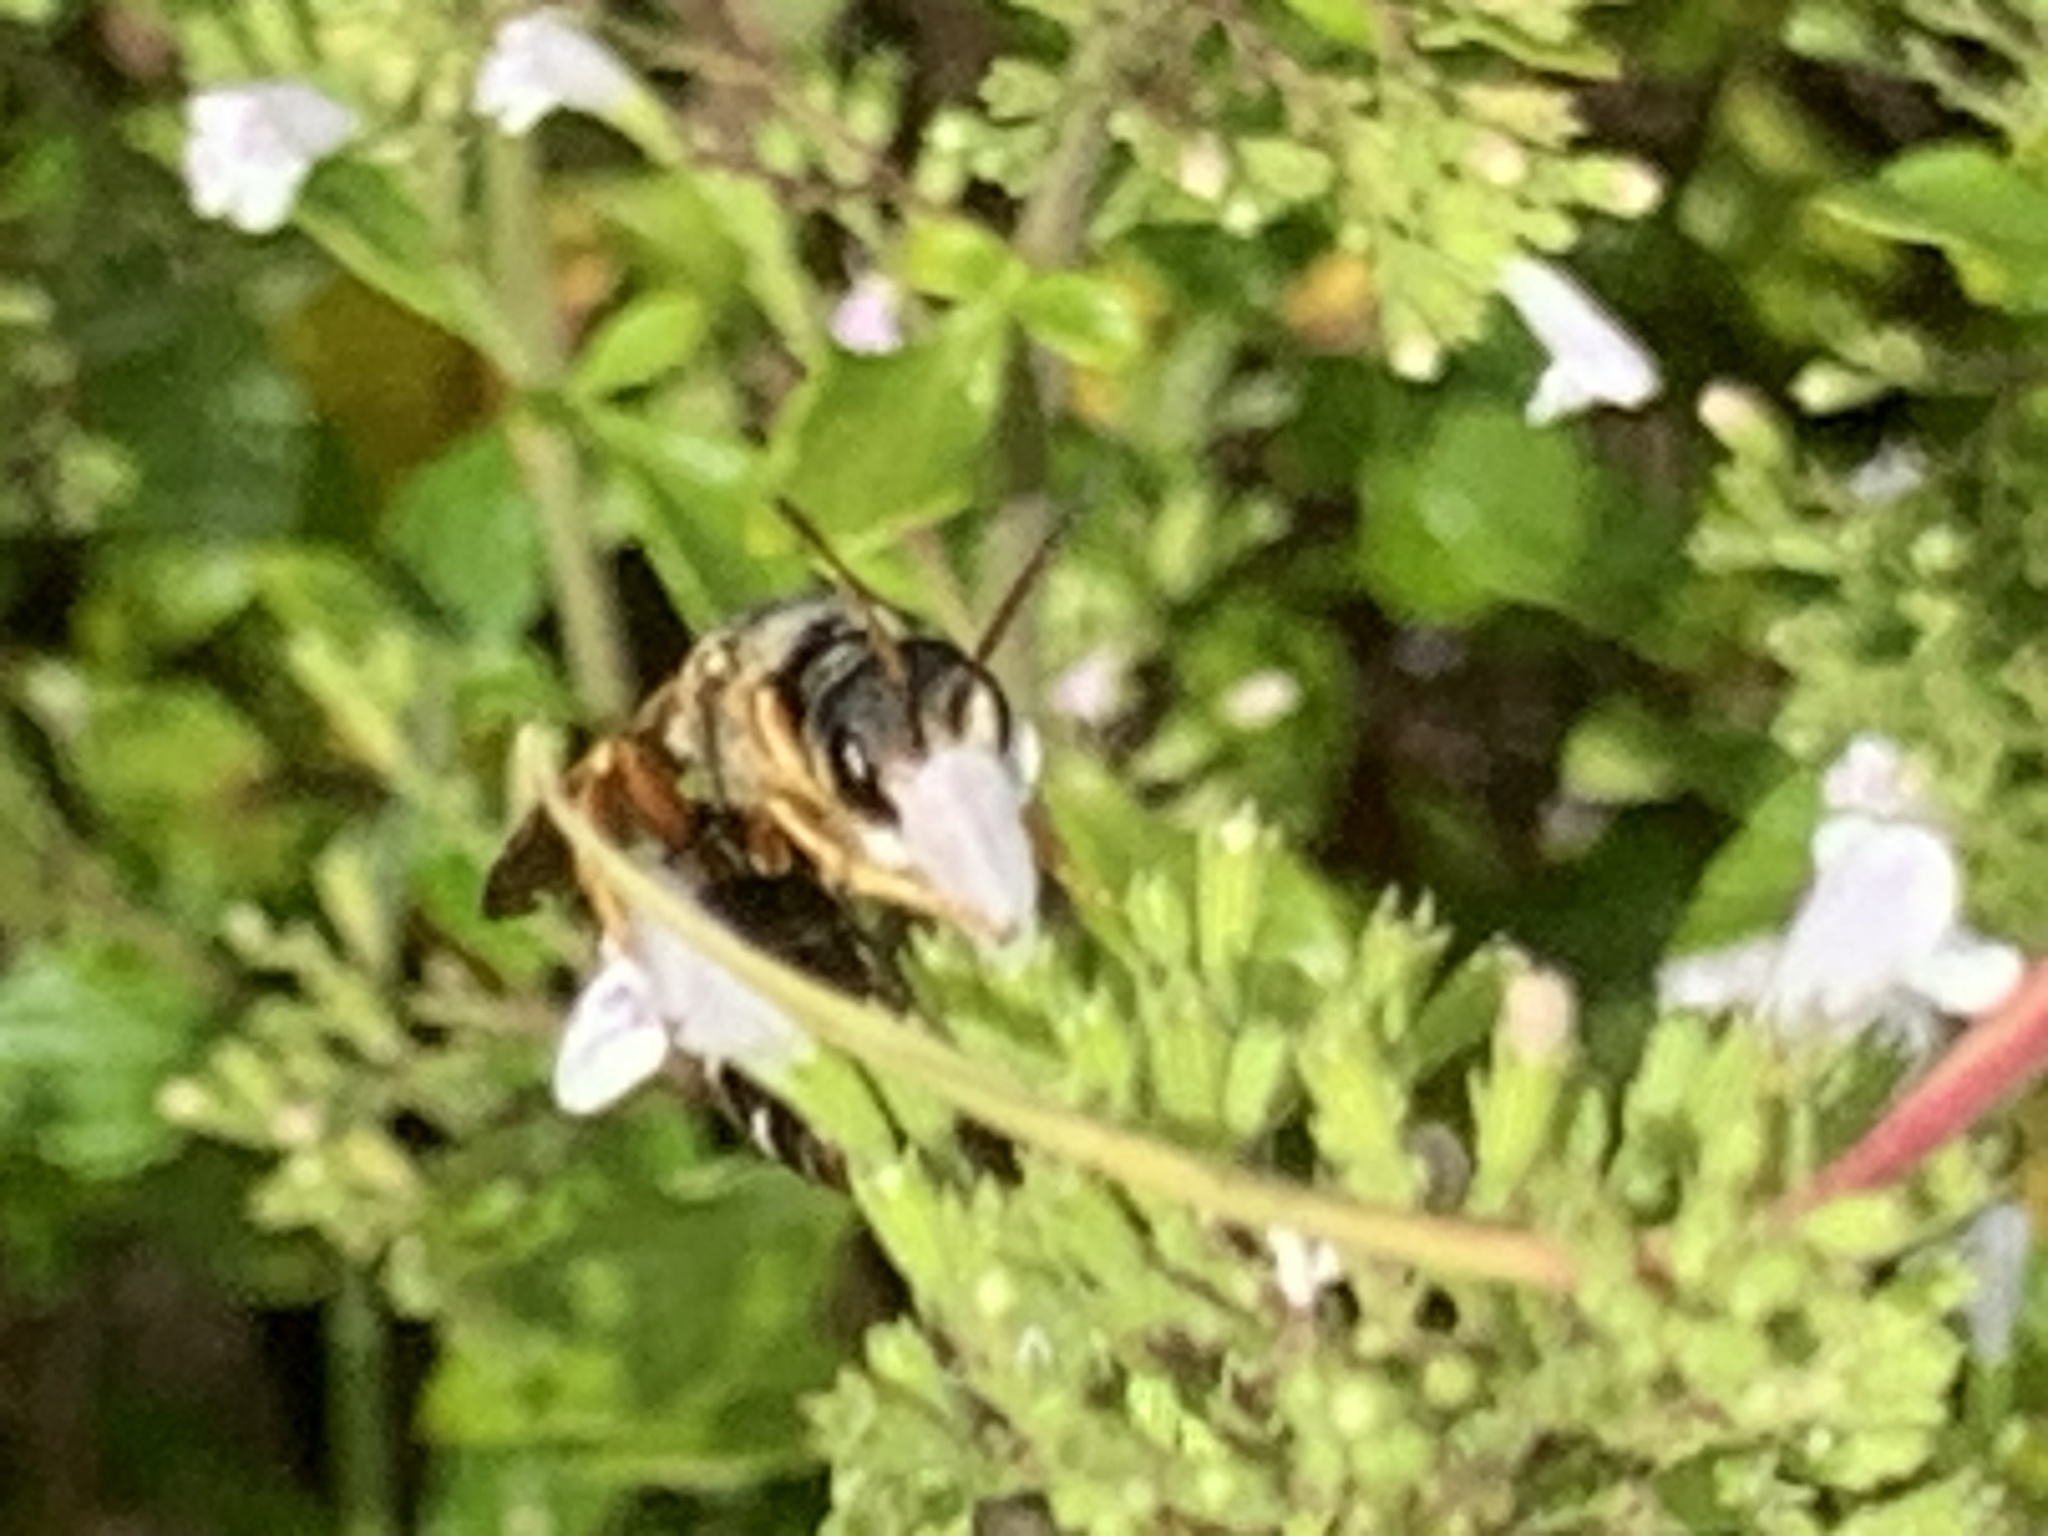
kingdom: Animalia
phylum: Arthropoda
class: Insecta
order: Hymenoptera
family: Halictidae
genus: Halictus
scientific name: Halictus parallelus
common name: Parallel-striped sweat bee
